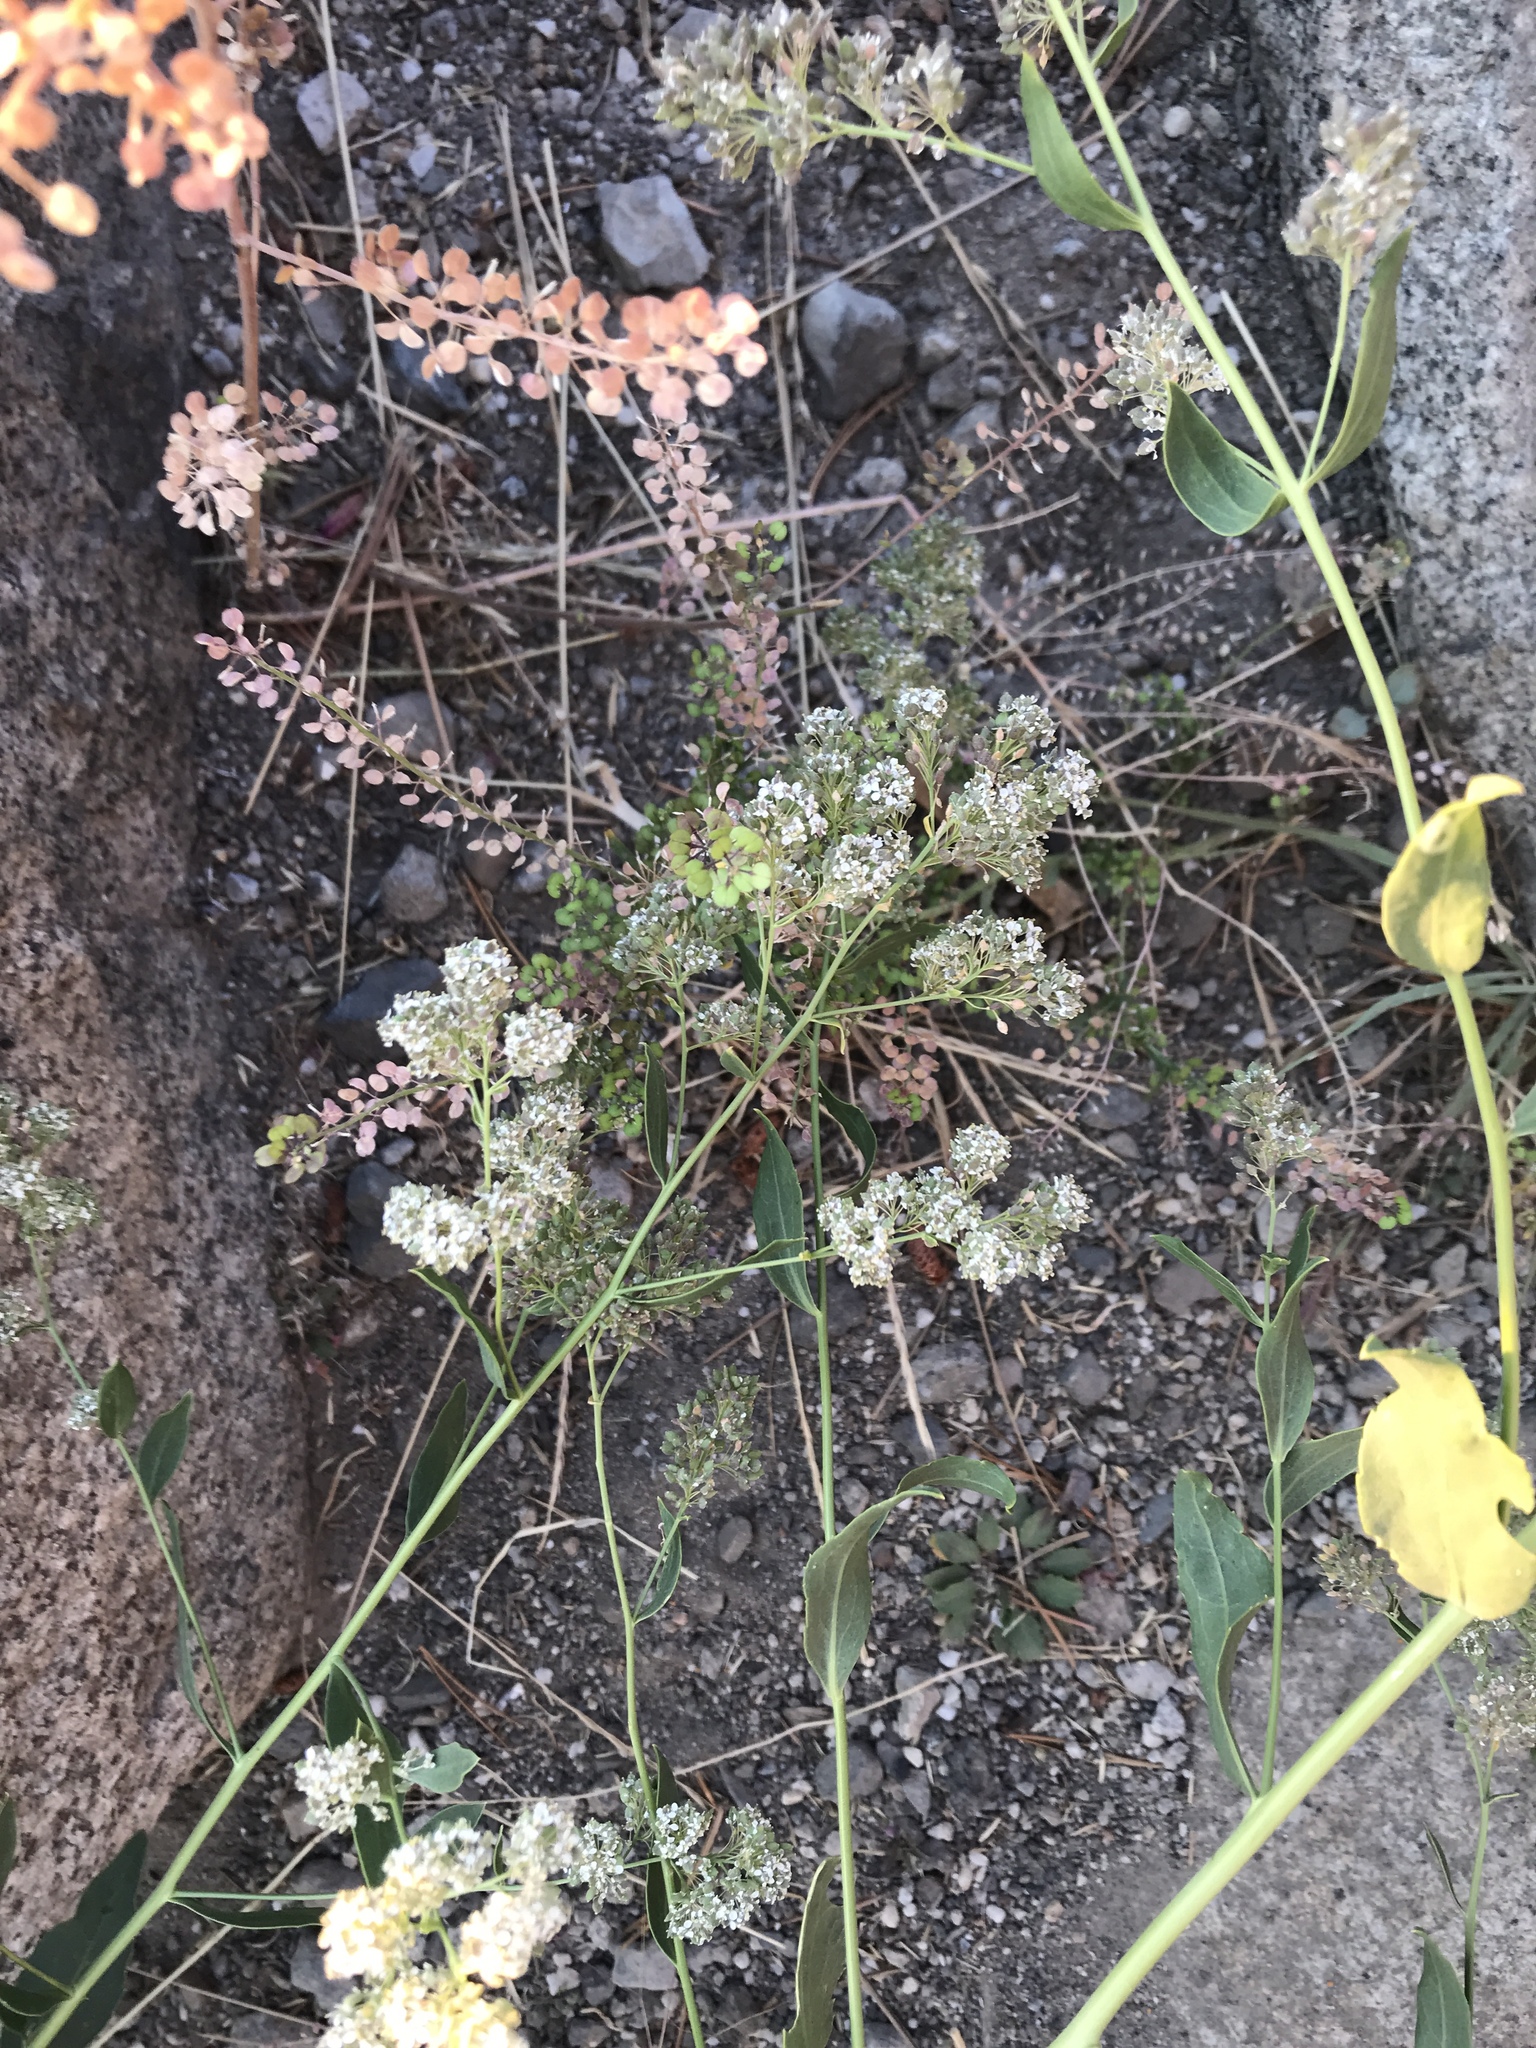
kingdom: Plantae
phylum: Tracheophyta
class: Magnoliopsida
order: Brassicales
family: Brassicaceae
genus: Lepidium
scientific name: Lepidium latifolium
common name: Dittander
